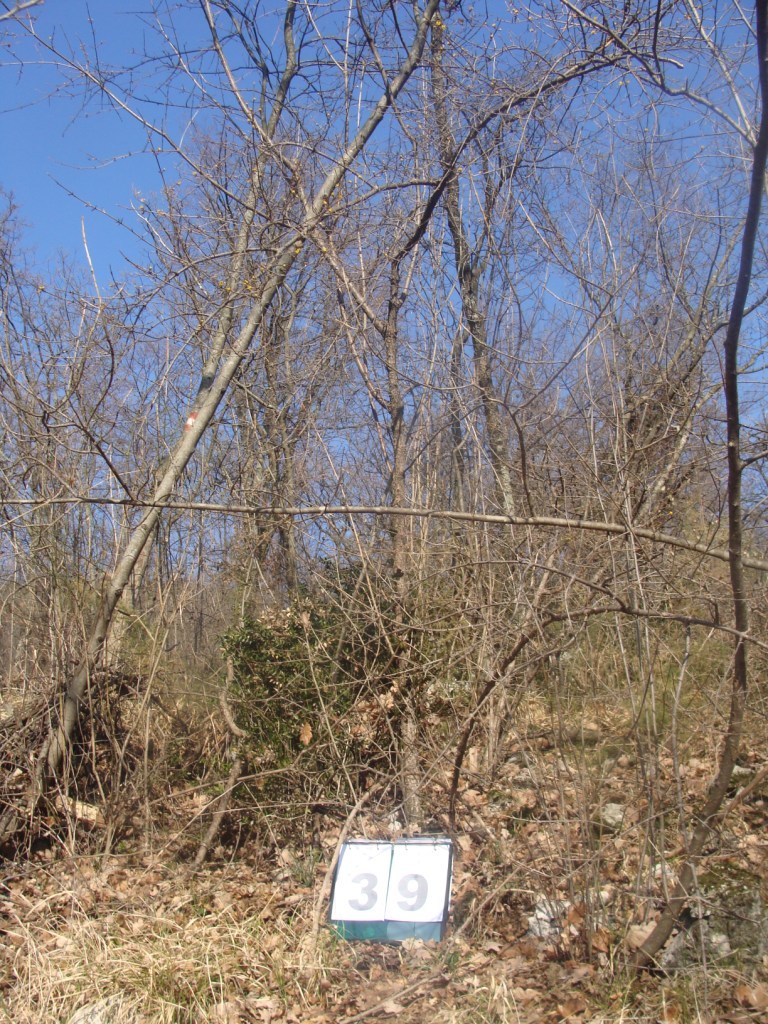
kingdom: Plantae
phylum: Tracheophyta
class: Magnoliopsida
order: Cornales
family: Cornaceae
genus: Cornus
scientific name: Cornus mas
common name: Cornelian-cherry
